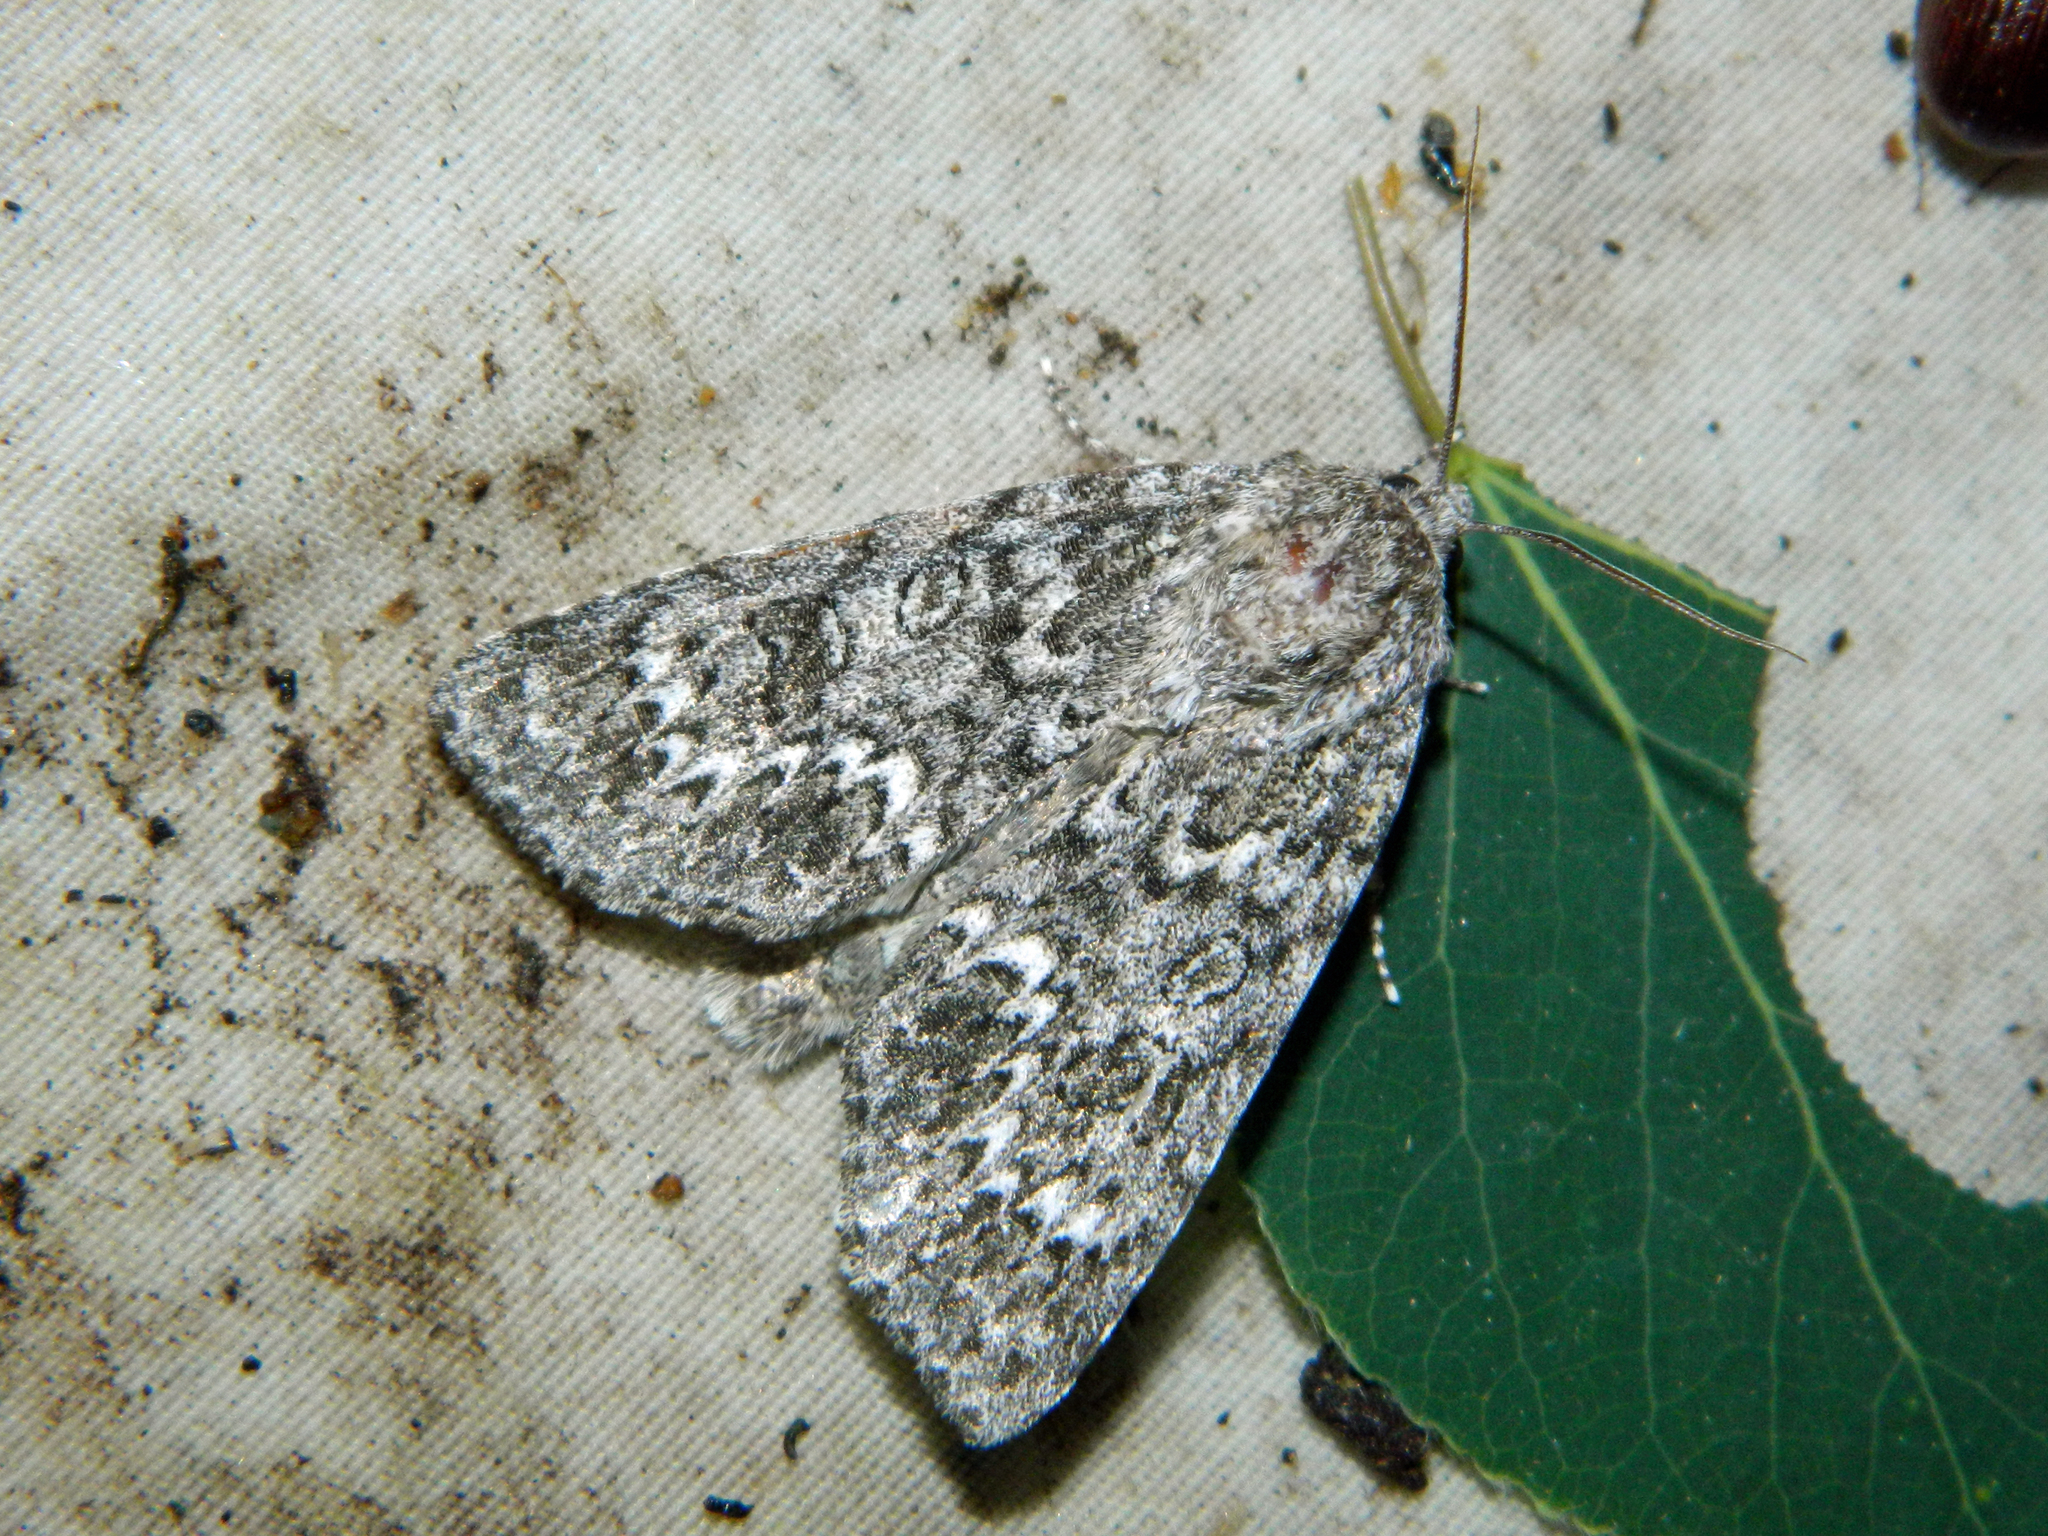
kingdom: Animalia
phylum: Arthropoda
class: Insecta
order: Lepidoptera
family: Noctuidae
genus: Acronicta
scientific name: Acronicta impleta
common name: Powdered dagger
